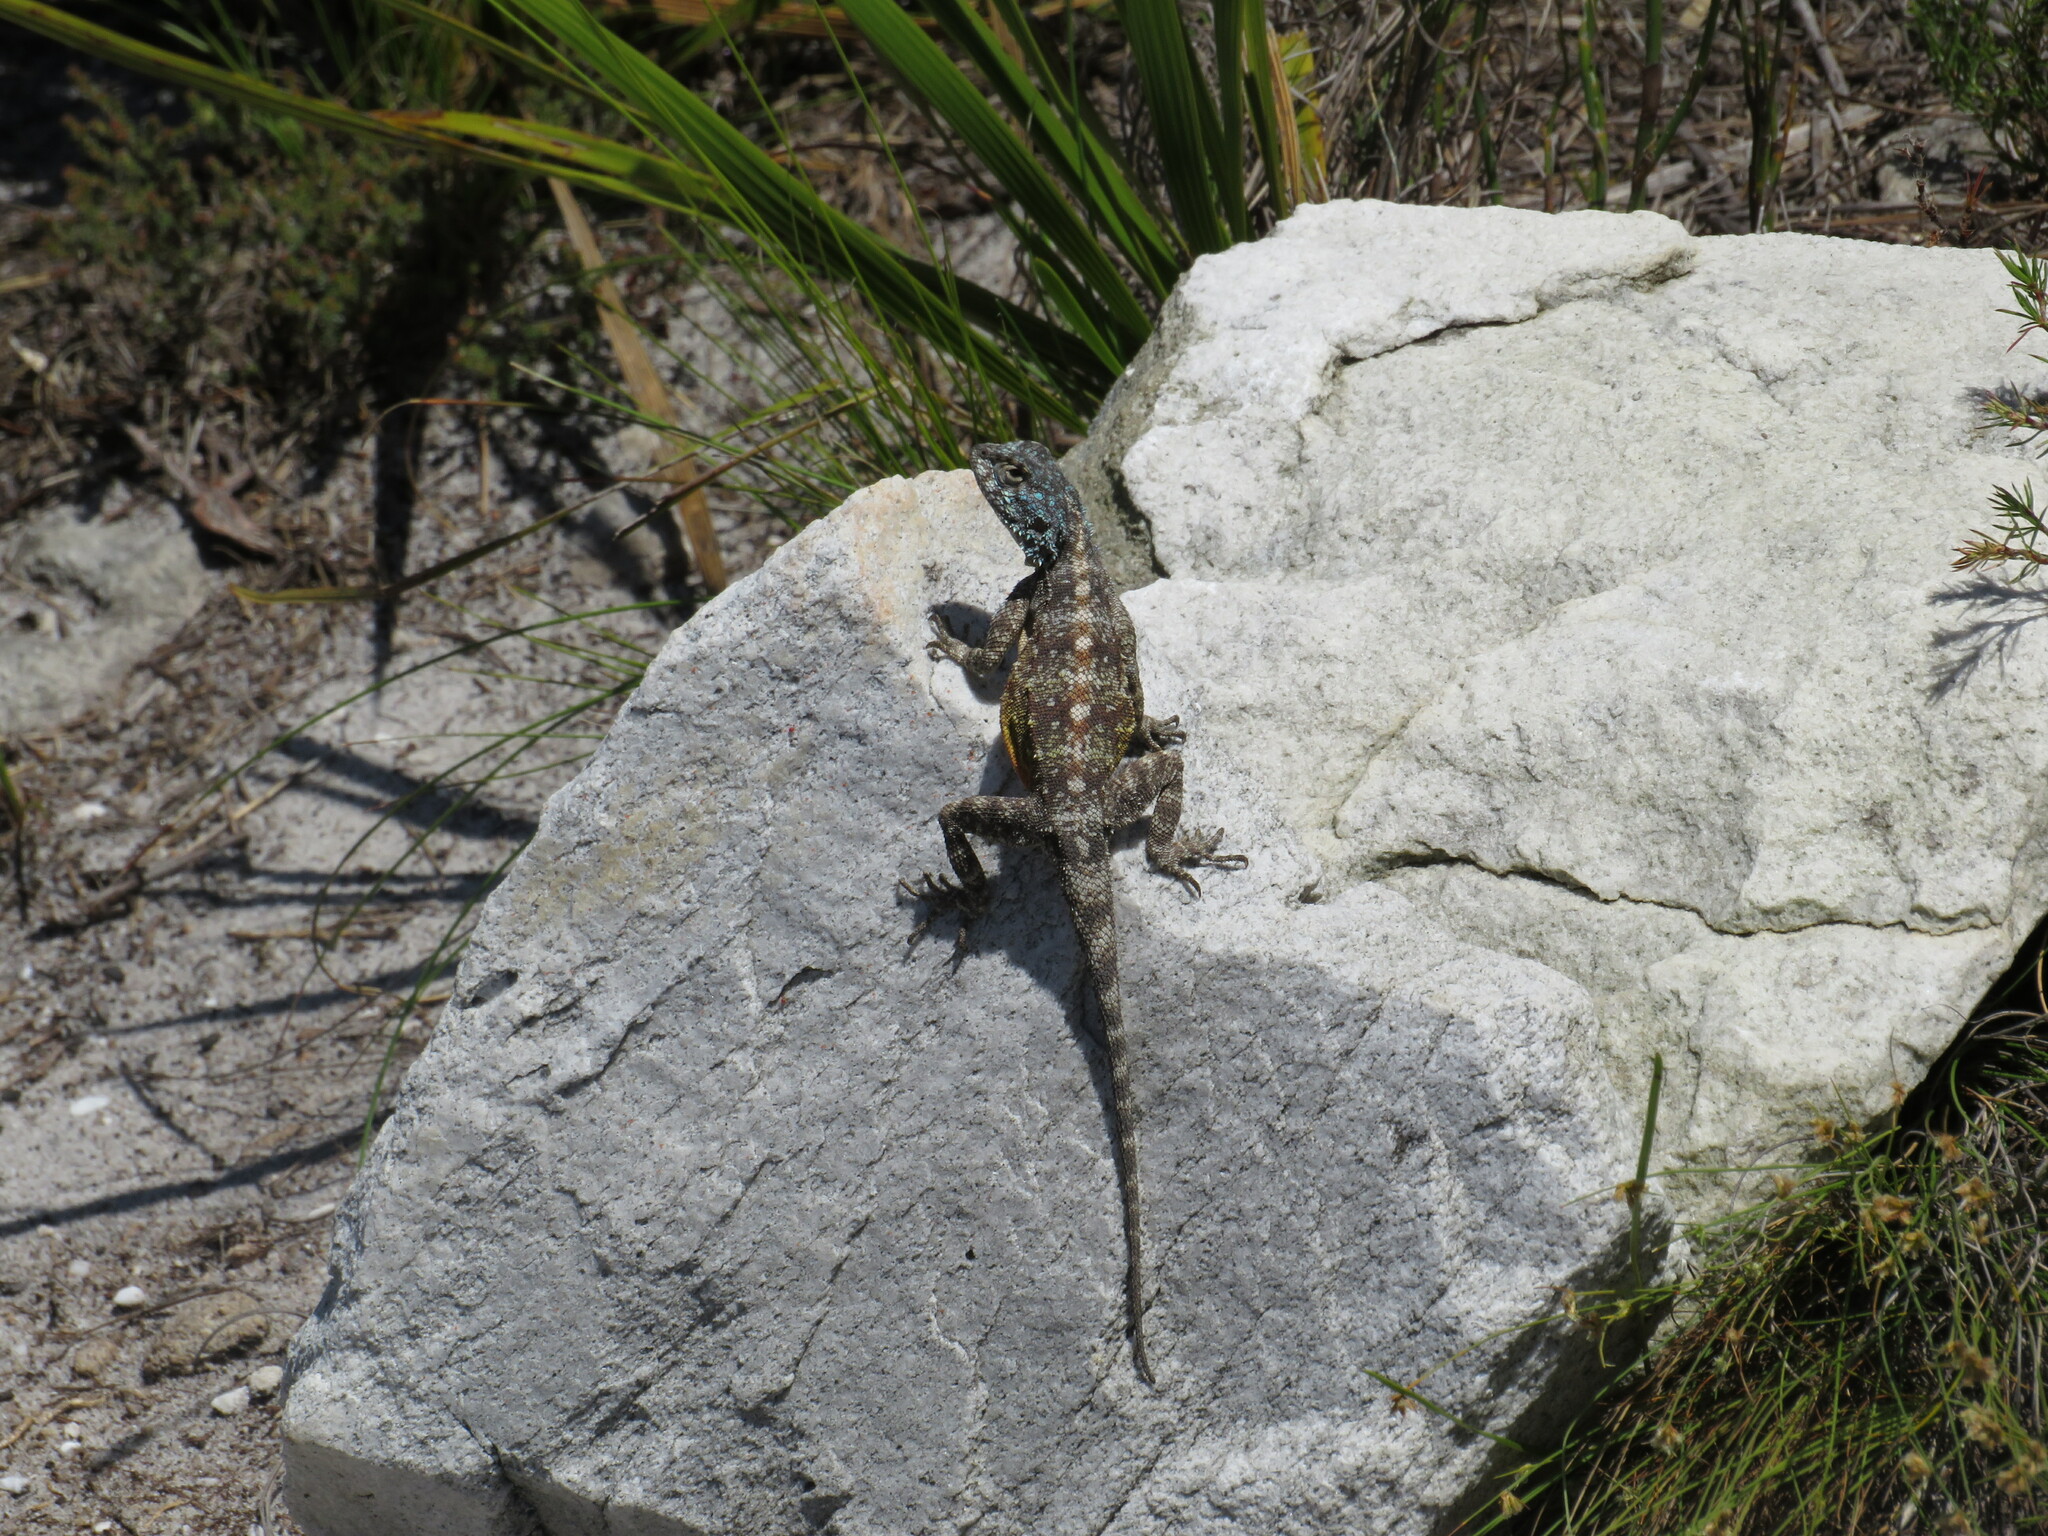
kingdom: Animalia
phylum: Chordata
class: Squamata
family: Agamidae
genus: Agama
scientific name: Agama atra
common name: Southern african rock agama
